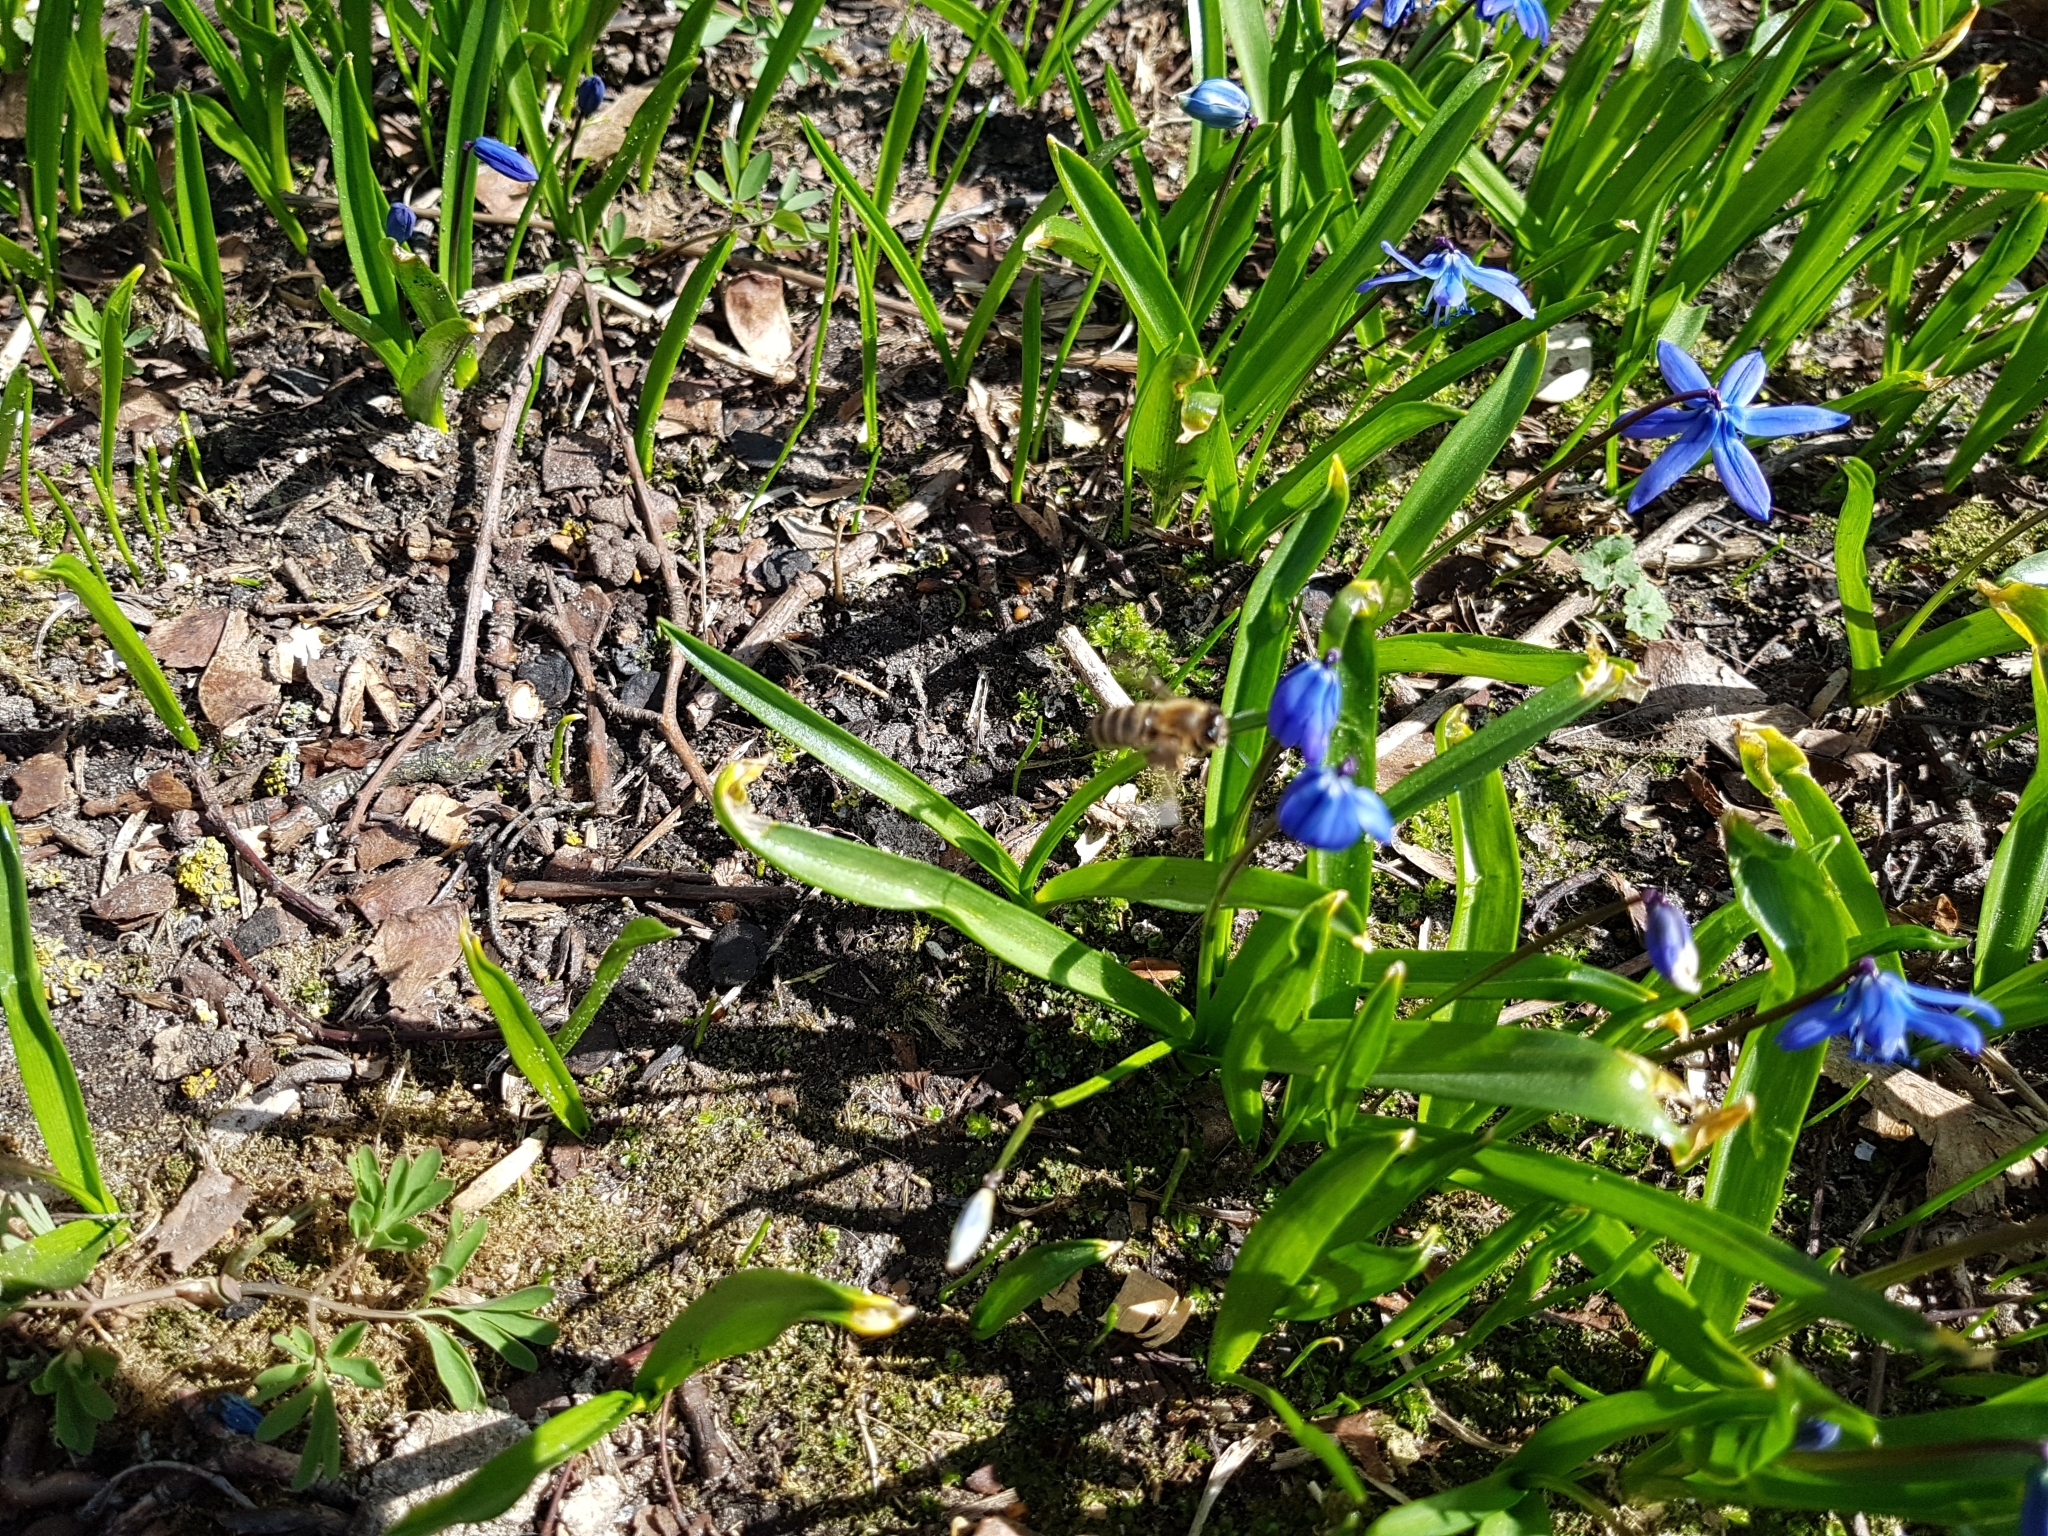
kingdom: Animalia
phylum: Arthropoda
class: Insecta
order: Hymenoptera
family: Apidae
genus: Apis
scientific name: Apis mellifera
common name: Honey bee
